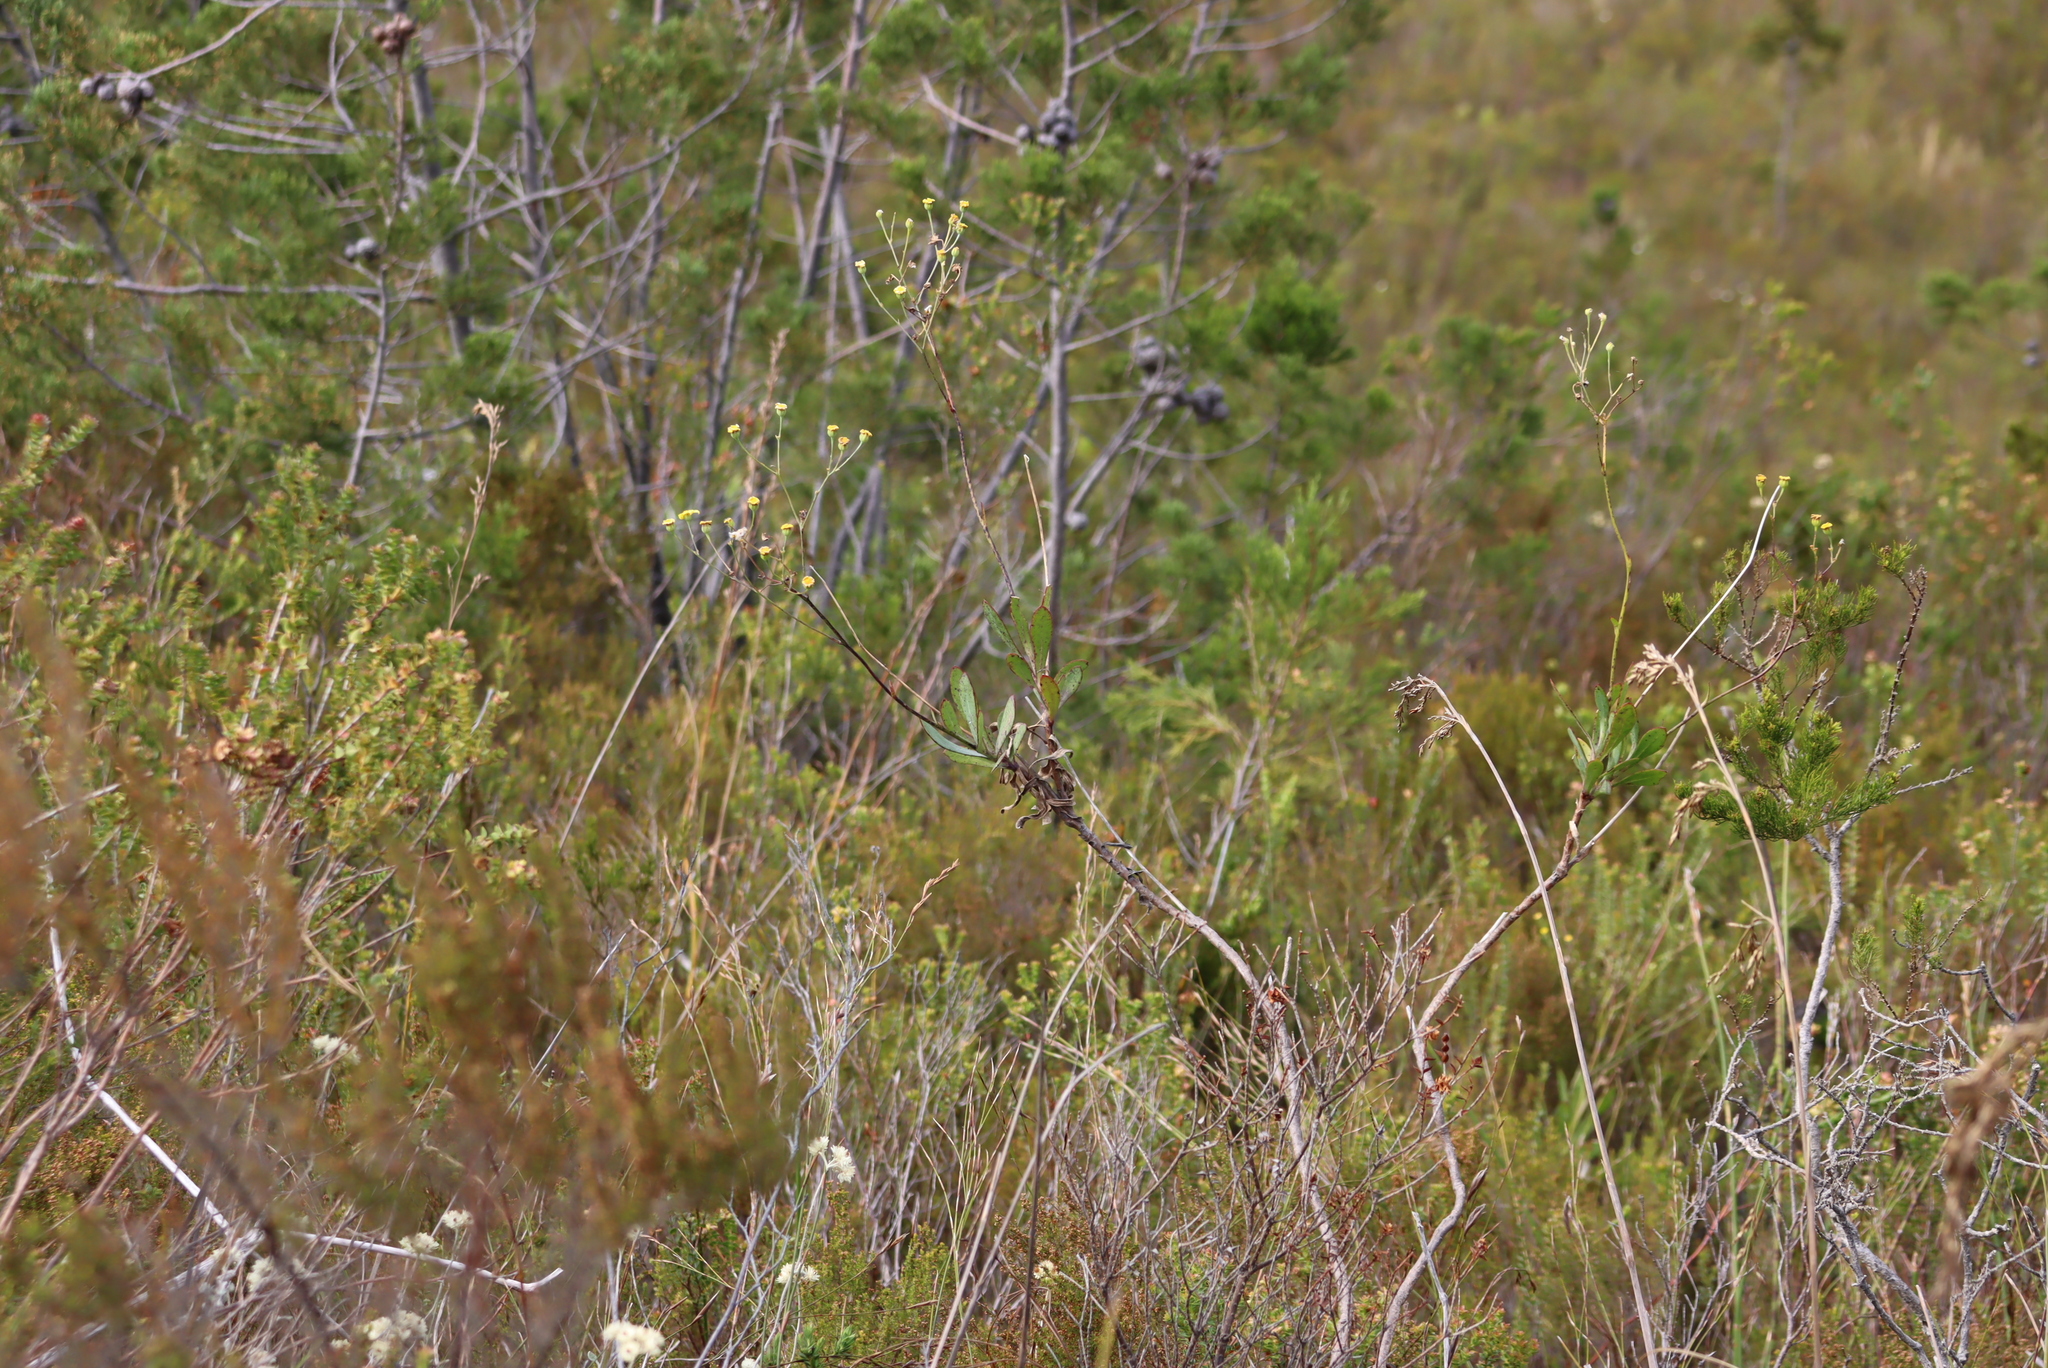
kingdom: Plantae
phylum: Tracheophyta
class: Magnoliopsida
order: Asterales
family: Asteraceae
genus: Othonna
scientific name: Othonna quinquedentata
